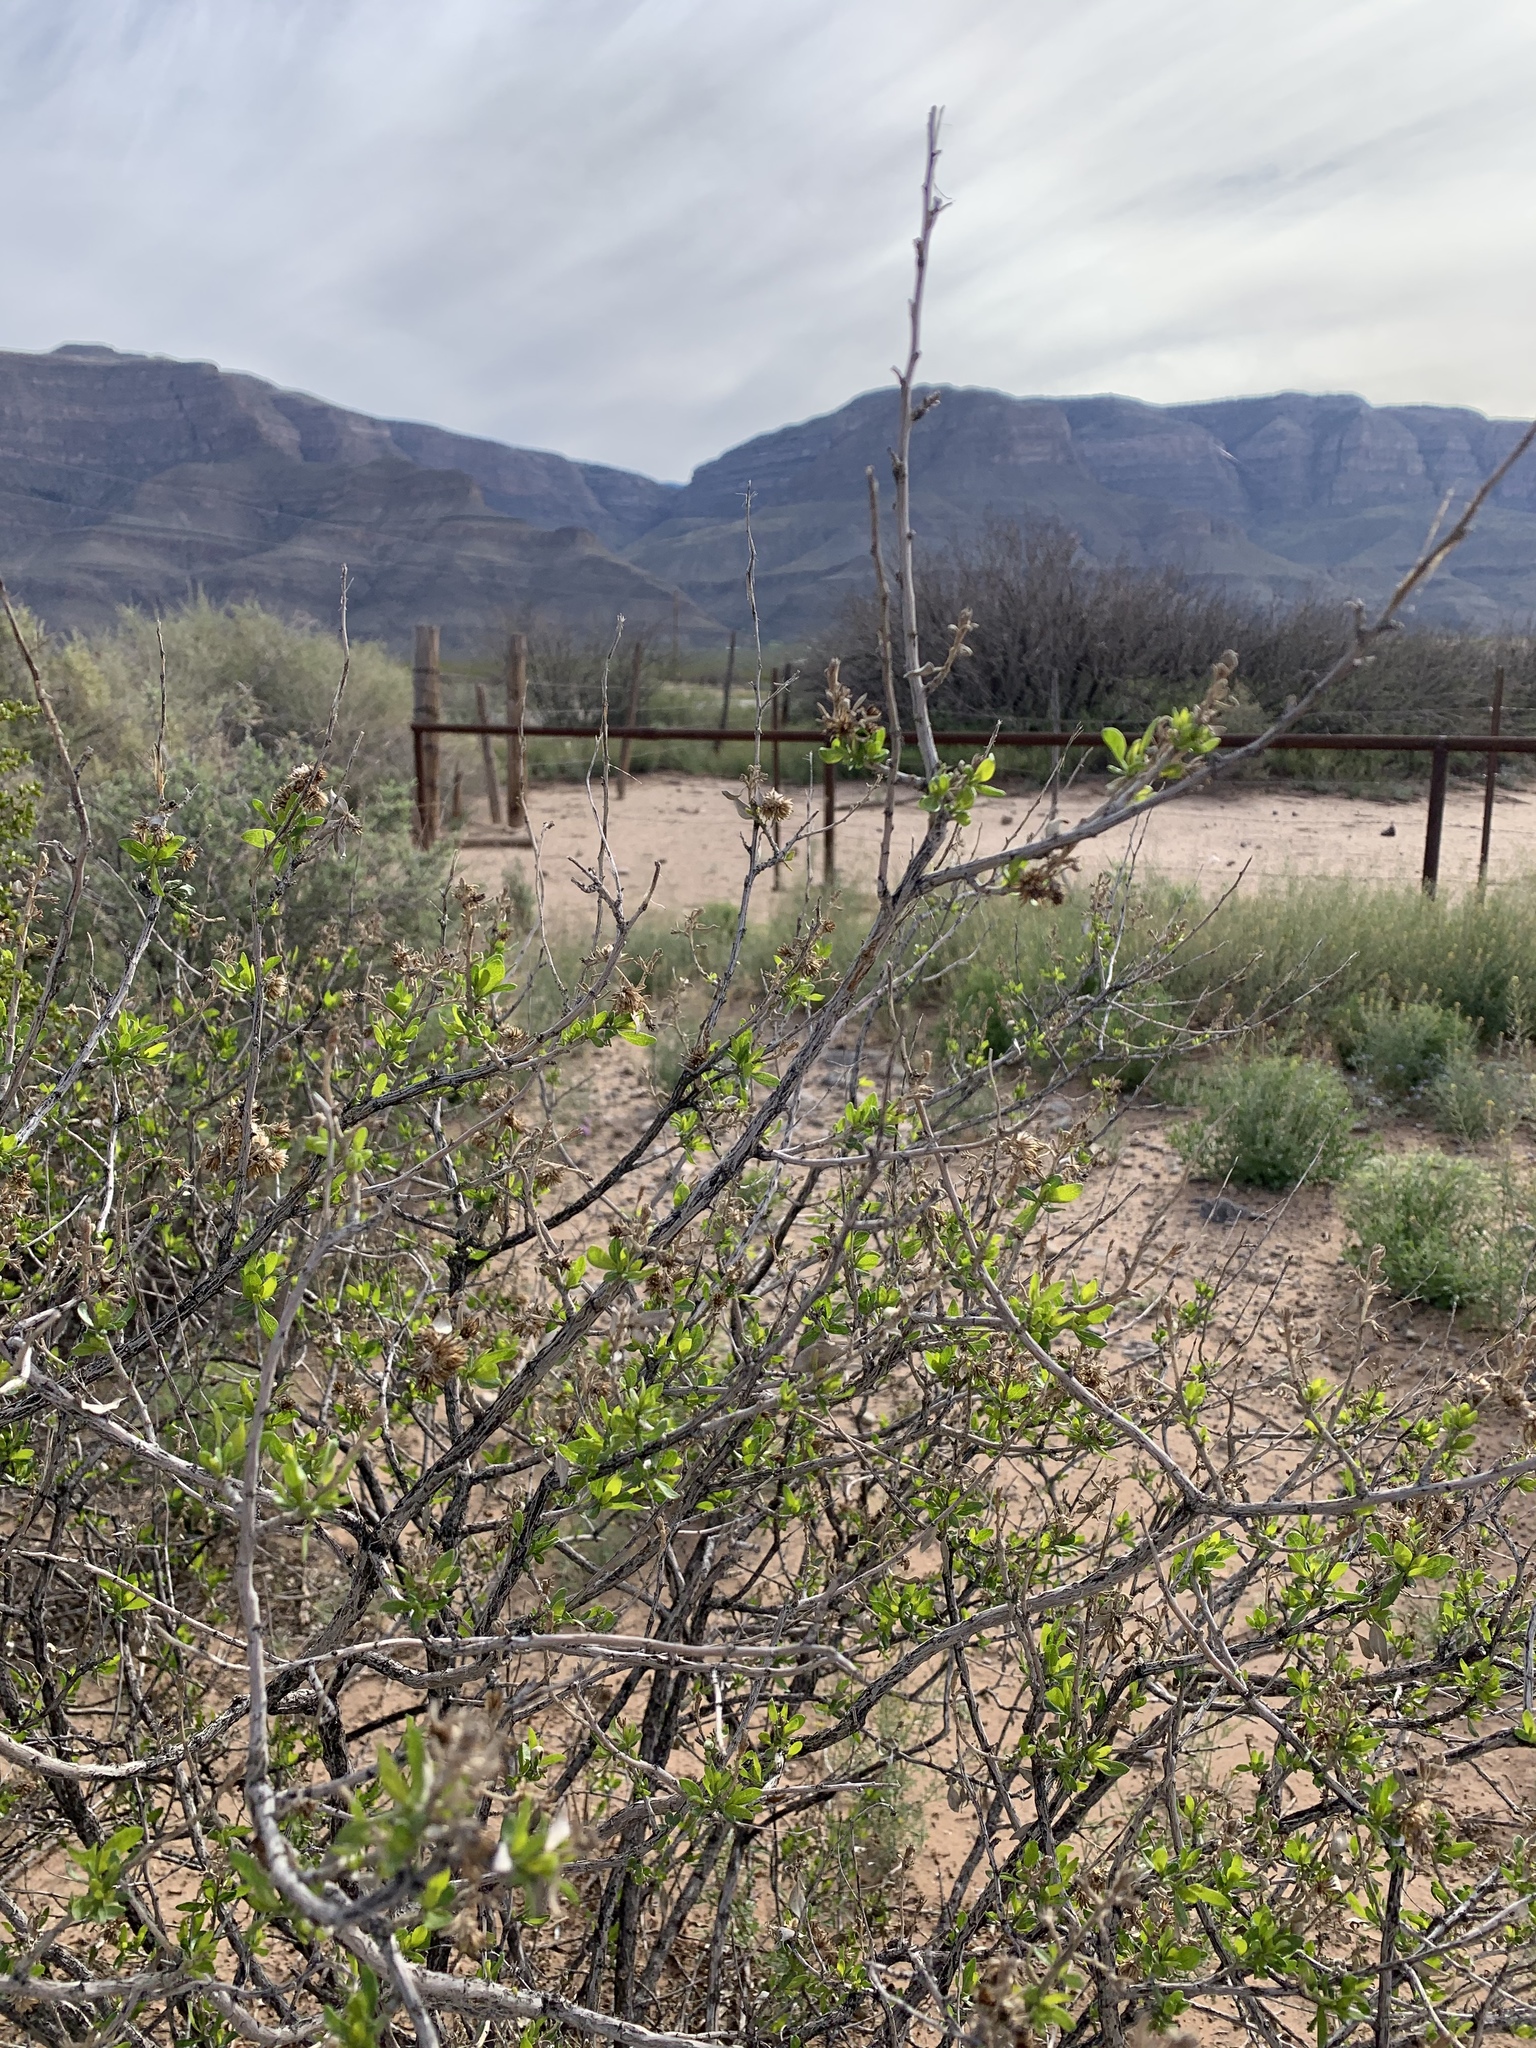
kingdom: Plantae
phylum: Tracheophyta
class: Magnoliopsida
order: Asterales
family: Asteraceae
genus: Flourensia
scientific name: Flourensia cernua
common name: Varnishbush
